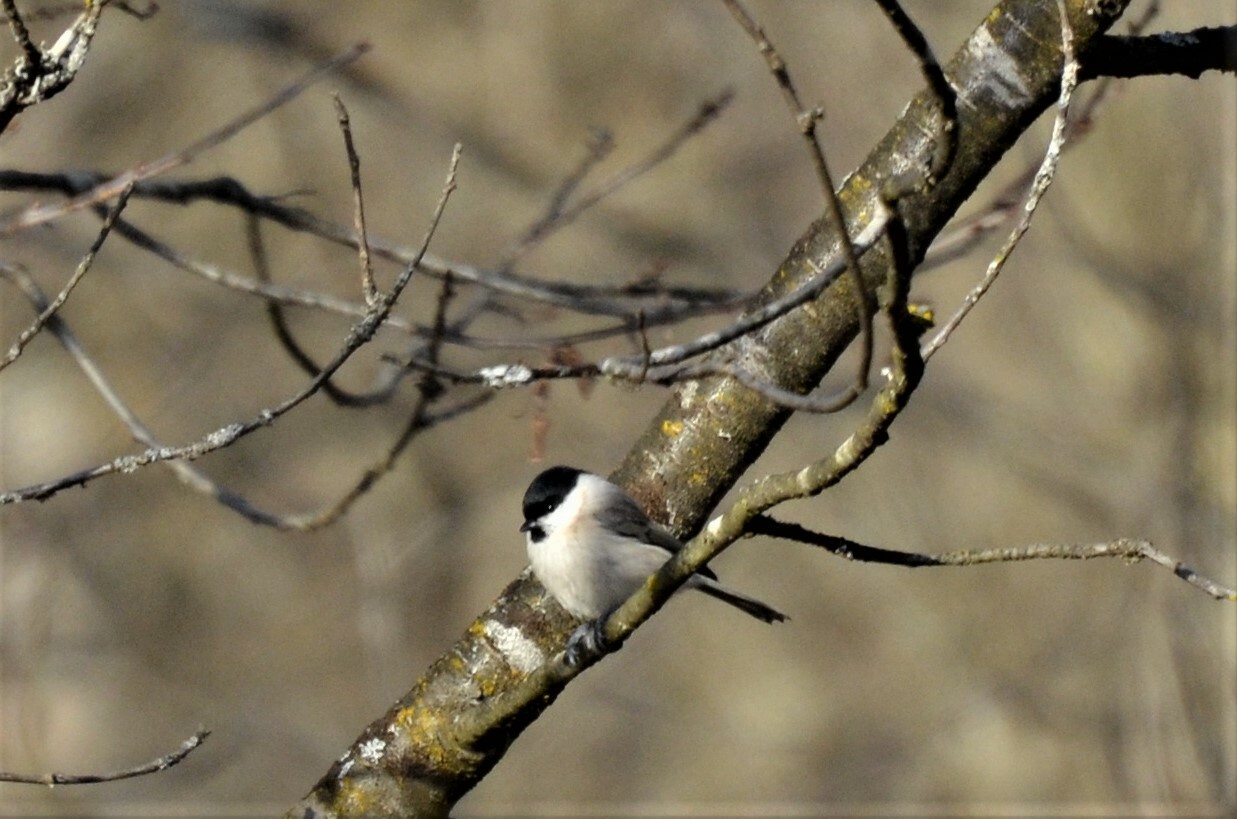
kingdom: Animalia
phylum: Chordata
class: Aves
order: Passeriformes
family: Paridae
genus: Poecile
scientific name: Poecile palustris
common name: Marsh tit
